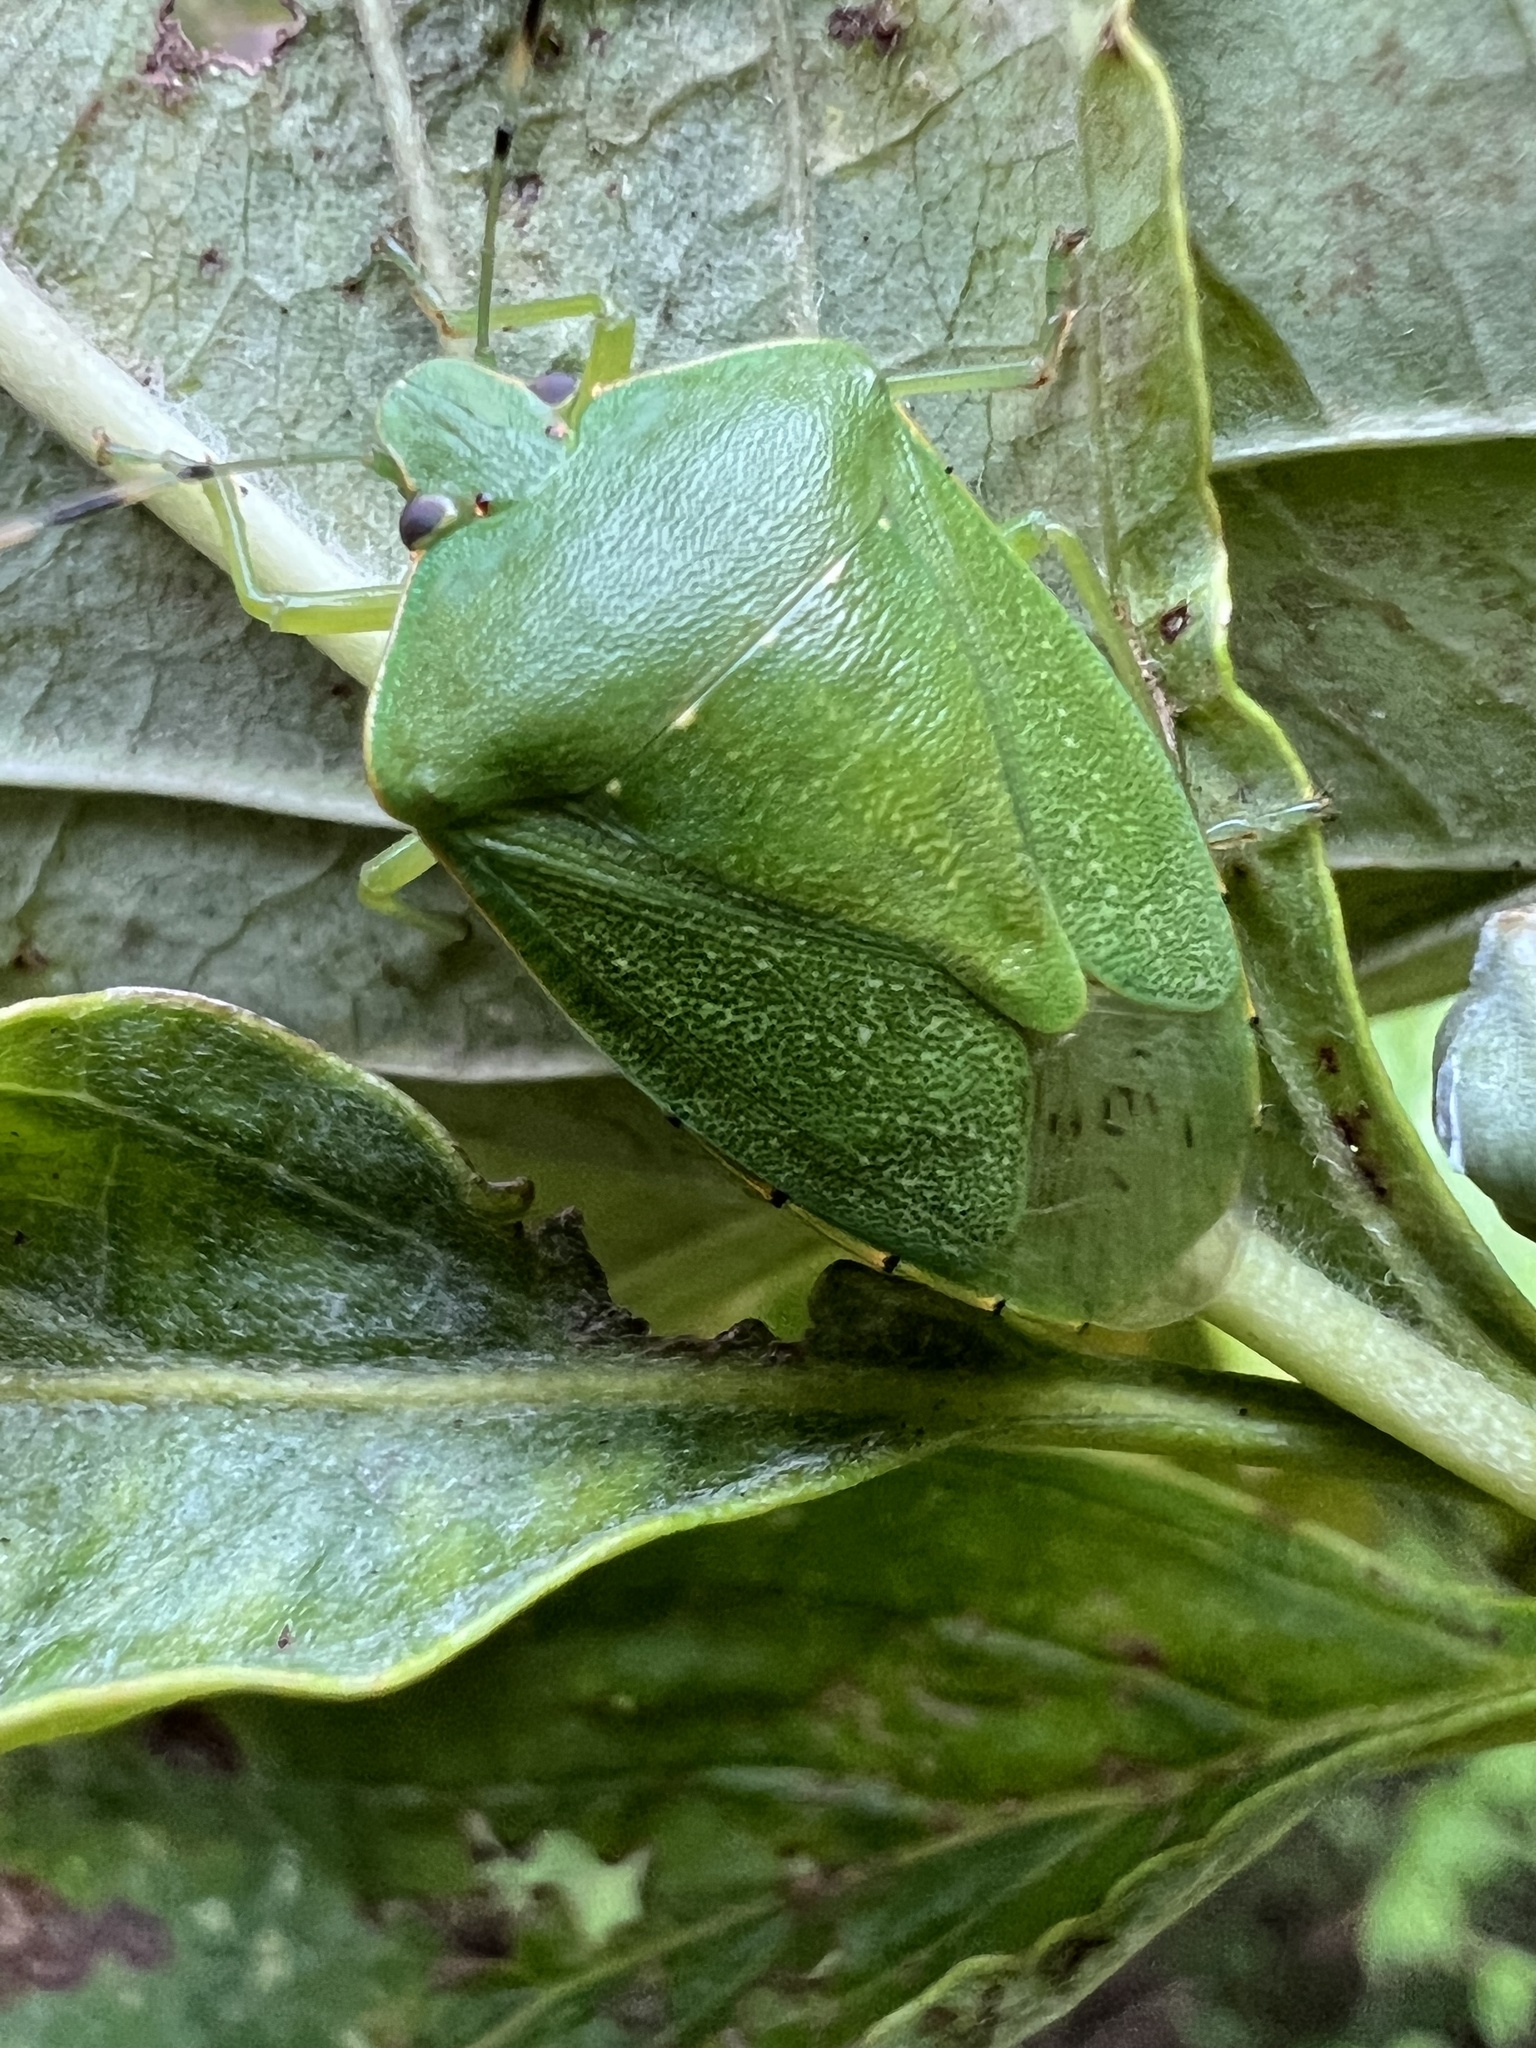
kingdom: Animalia
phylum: Arthropoda
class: Insecta
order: Hemiptera
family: Pentatomidae
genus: Chinavia
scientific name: Chinavia hilaris
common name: Green stink bug
